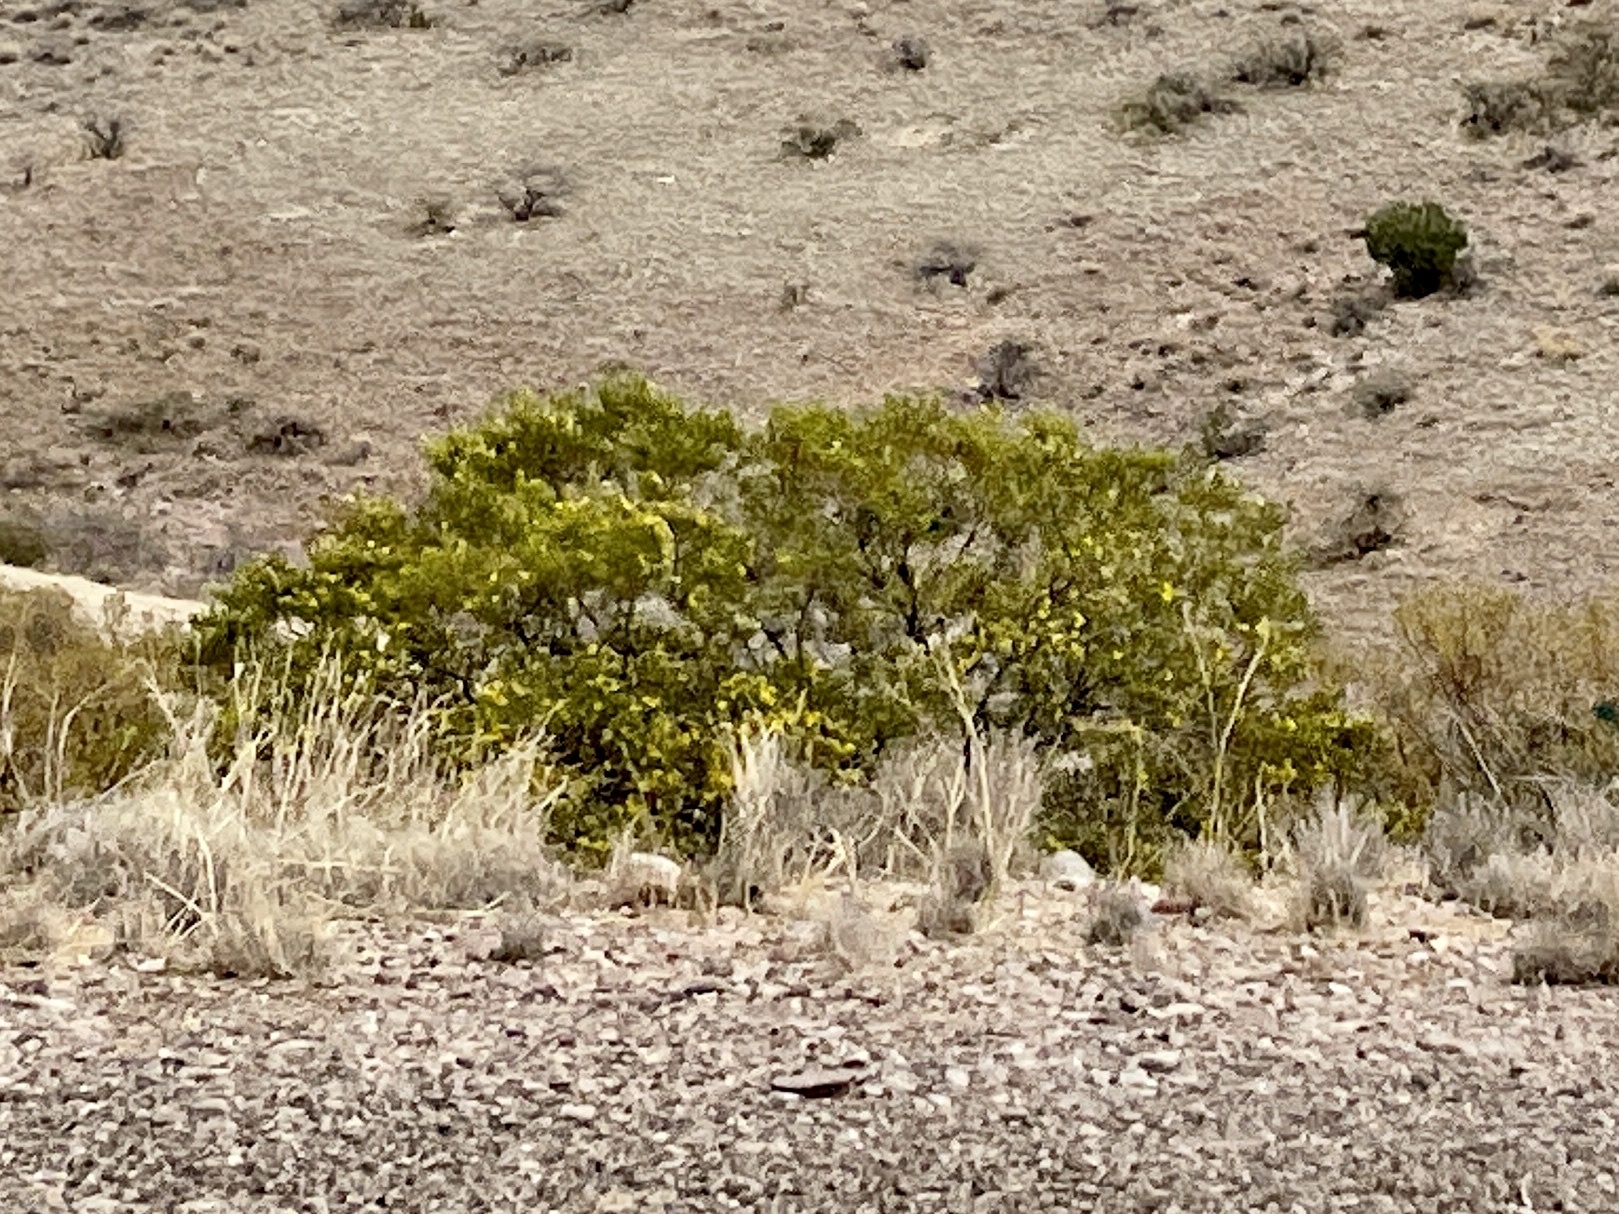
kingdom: Plantae
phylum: Tracheophyta
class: Magnoliopsida
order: Zygophyllales
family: Zygophyllaceae
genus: Larrea
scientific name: Larrea tridentata
